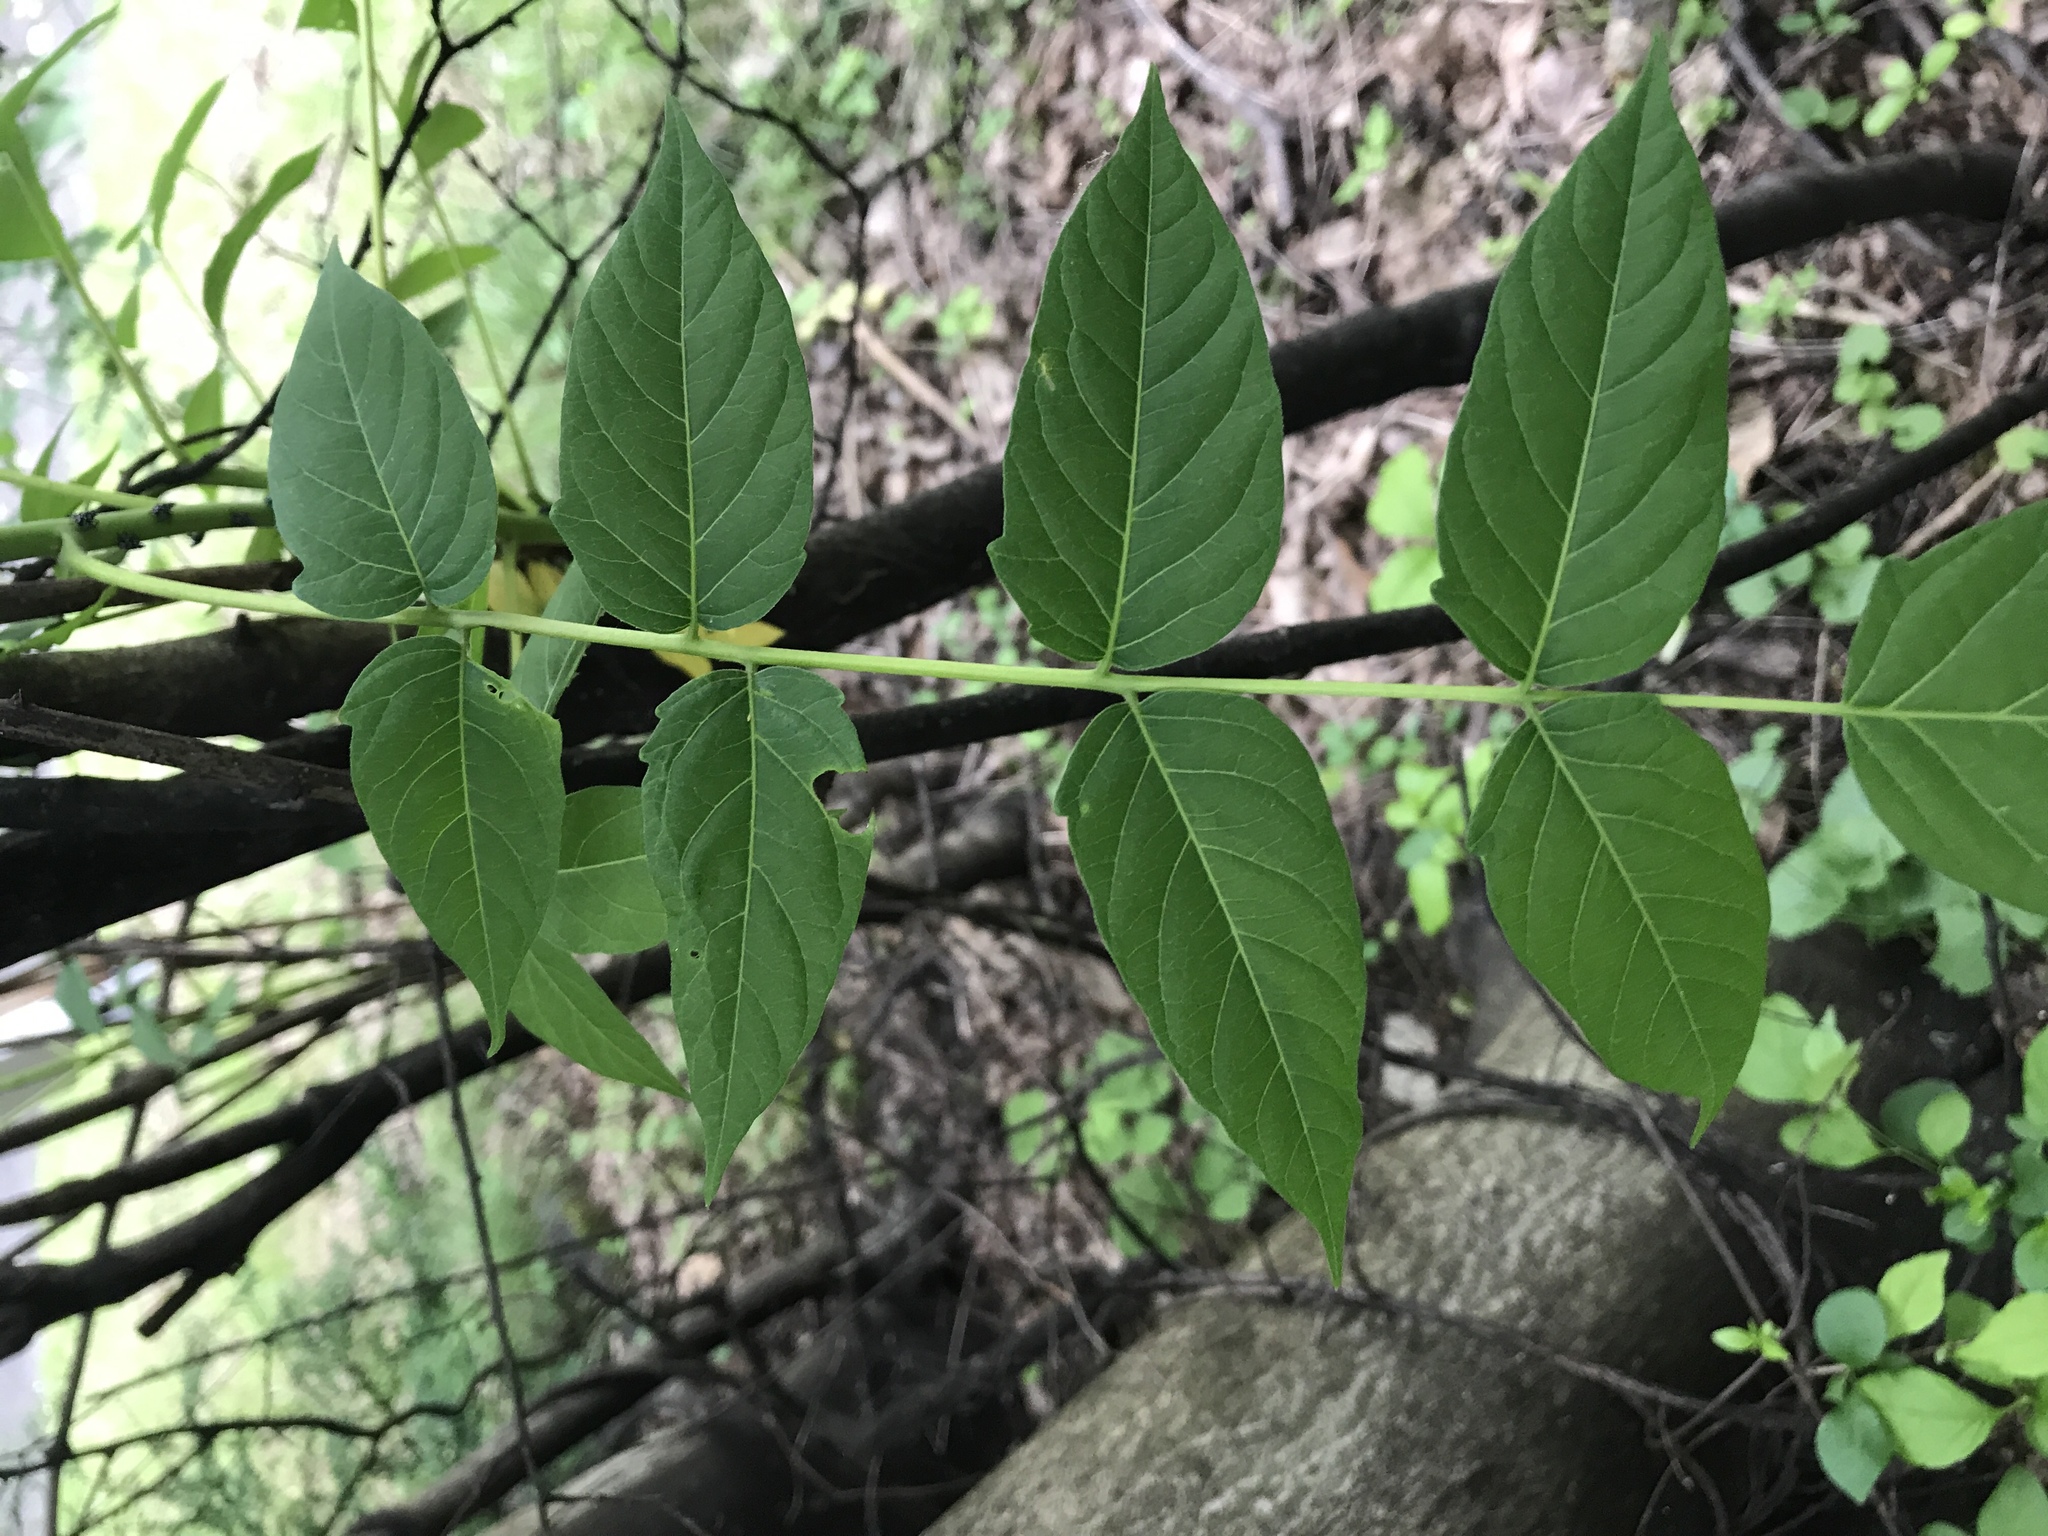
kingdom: Plantae
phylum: Tracheophyta
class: Magnoliopsida
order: Sapindales
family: Simaroubaceae
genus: Ailanthus
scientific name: Ailanthus altissima
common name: Tree-of-heaven
